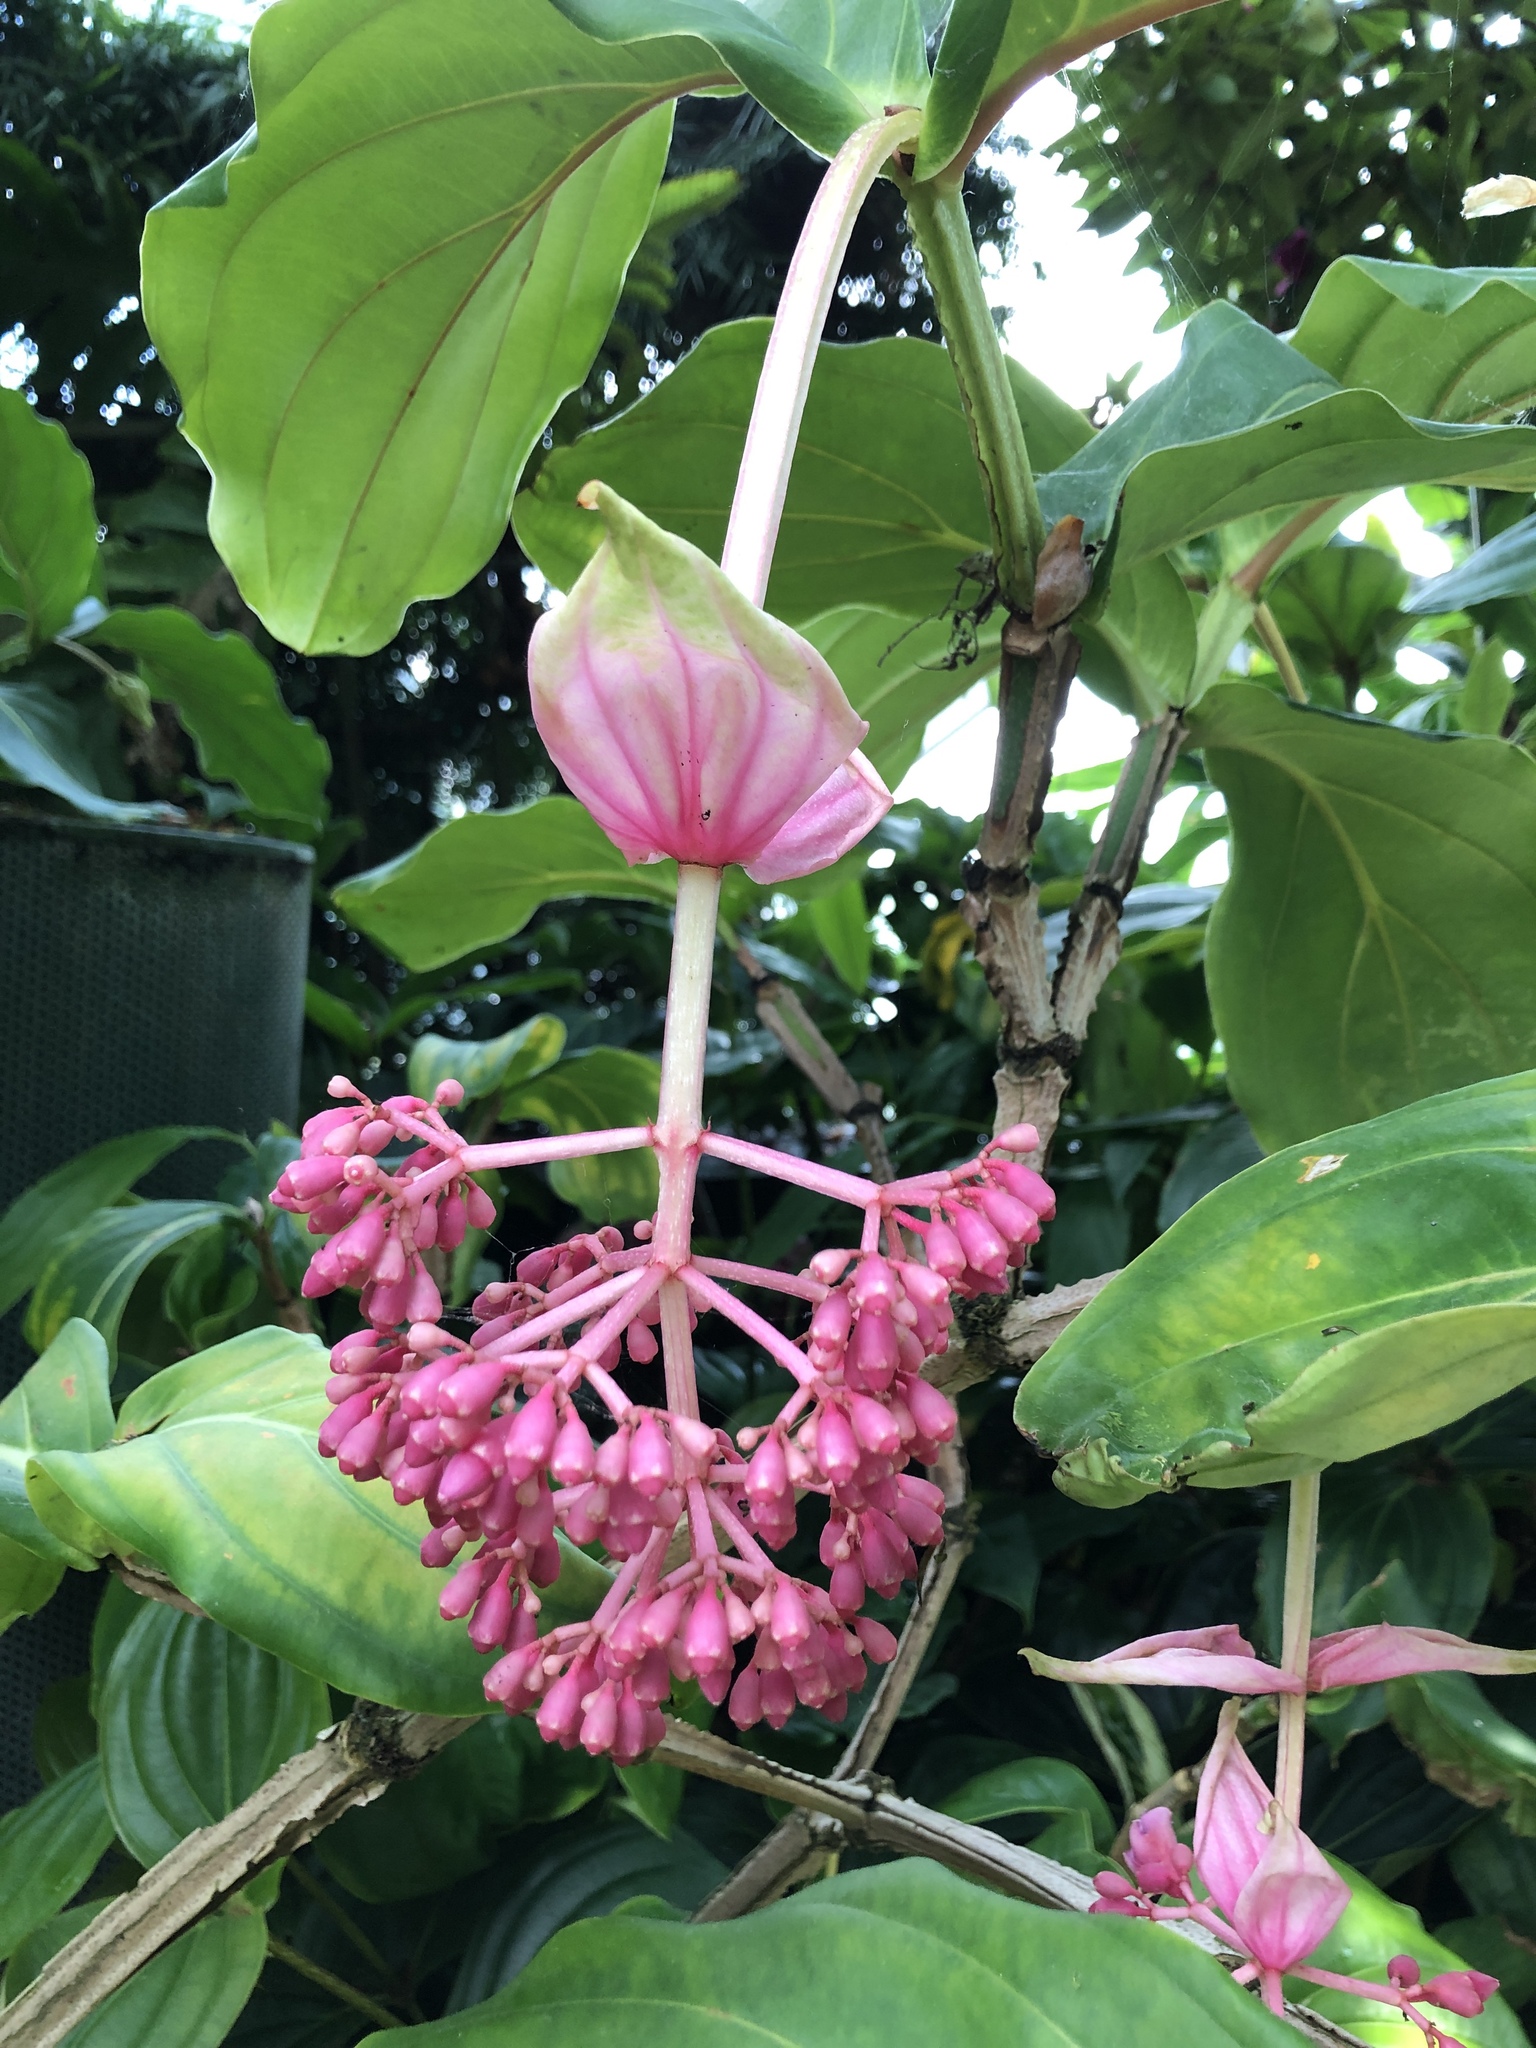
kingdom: Plantae
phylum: Tracheophyta
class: Magnoliopsida
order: Myrtales
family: Melastomataceae
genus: Medinilla
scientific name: Medinilla magnifica
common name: Showy medinilla
